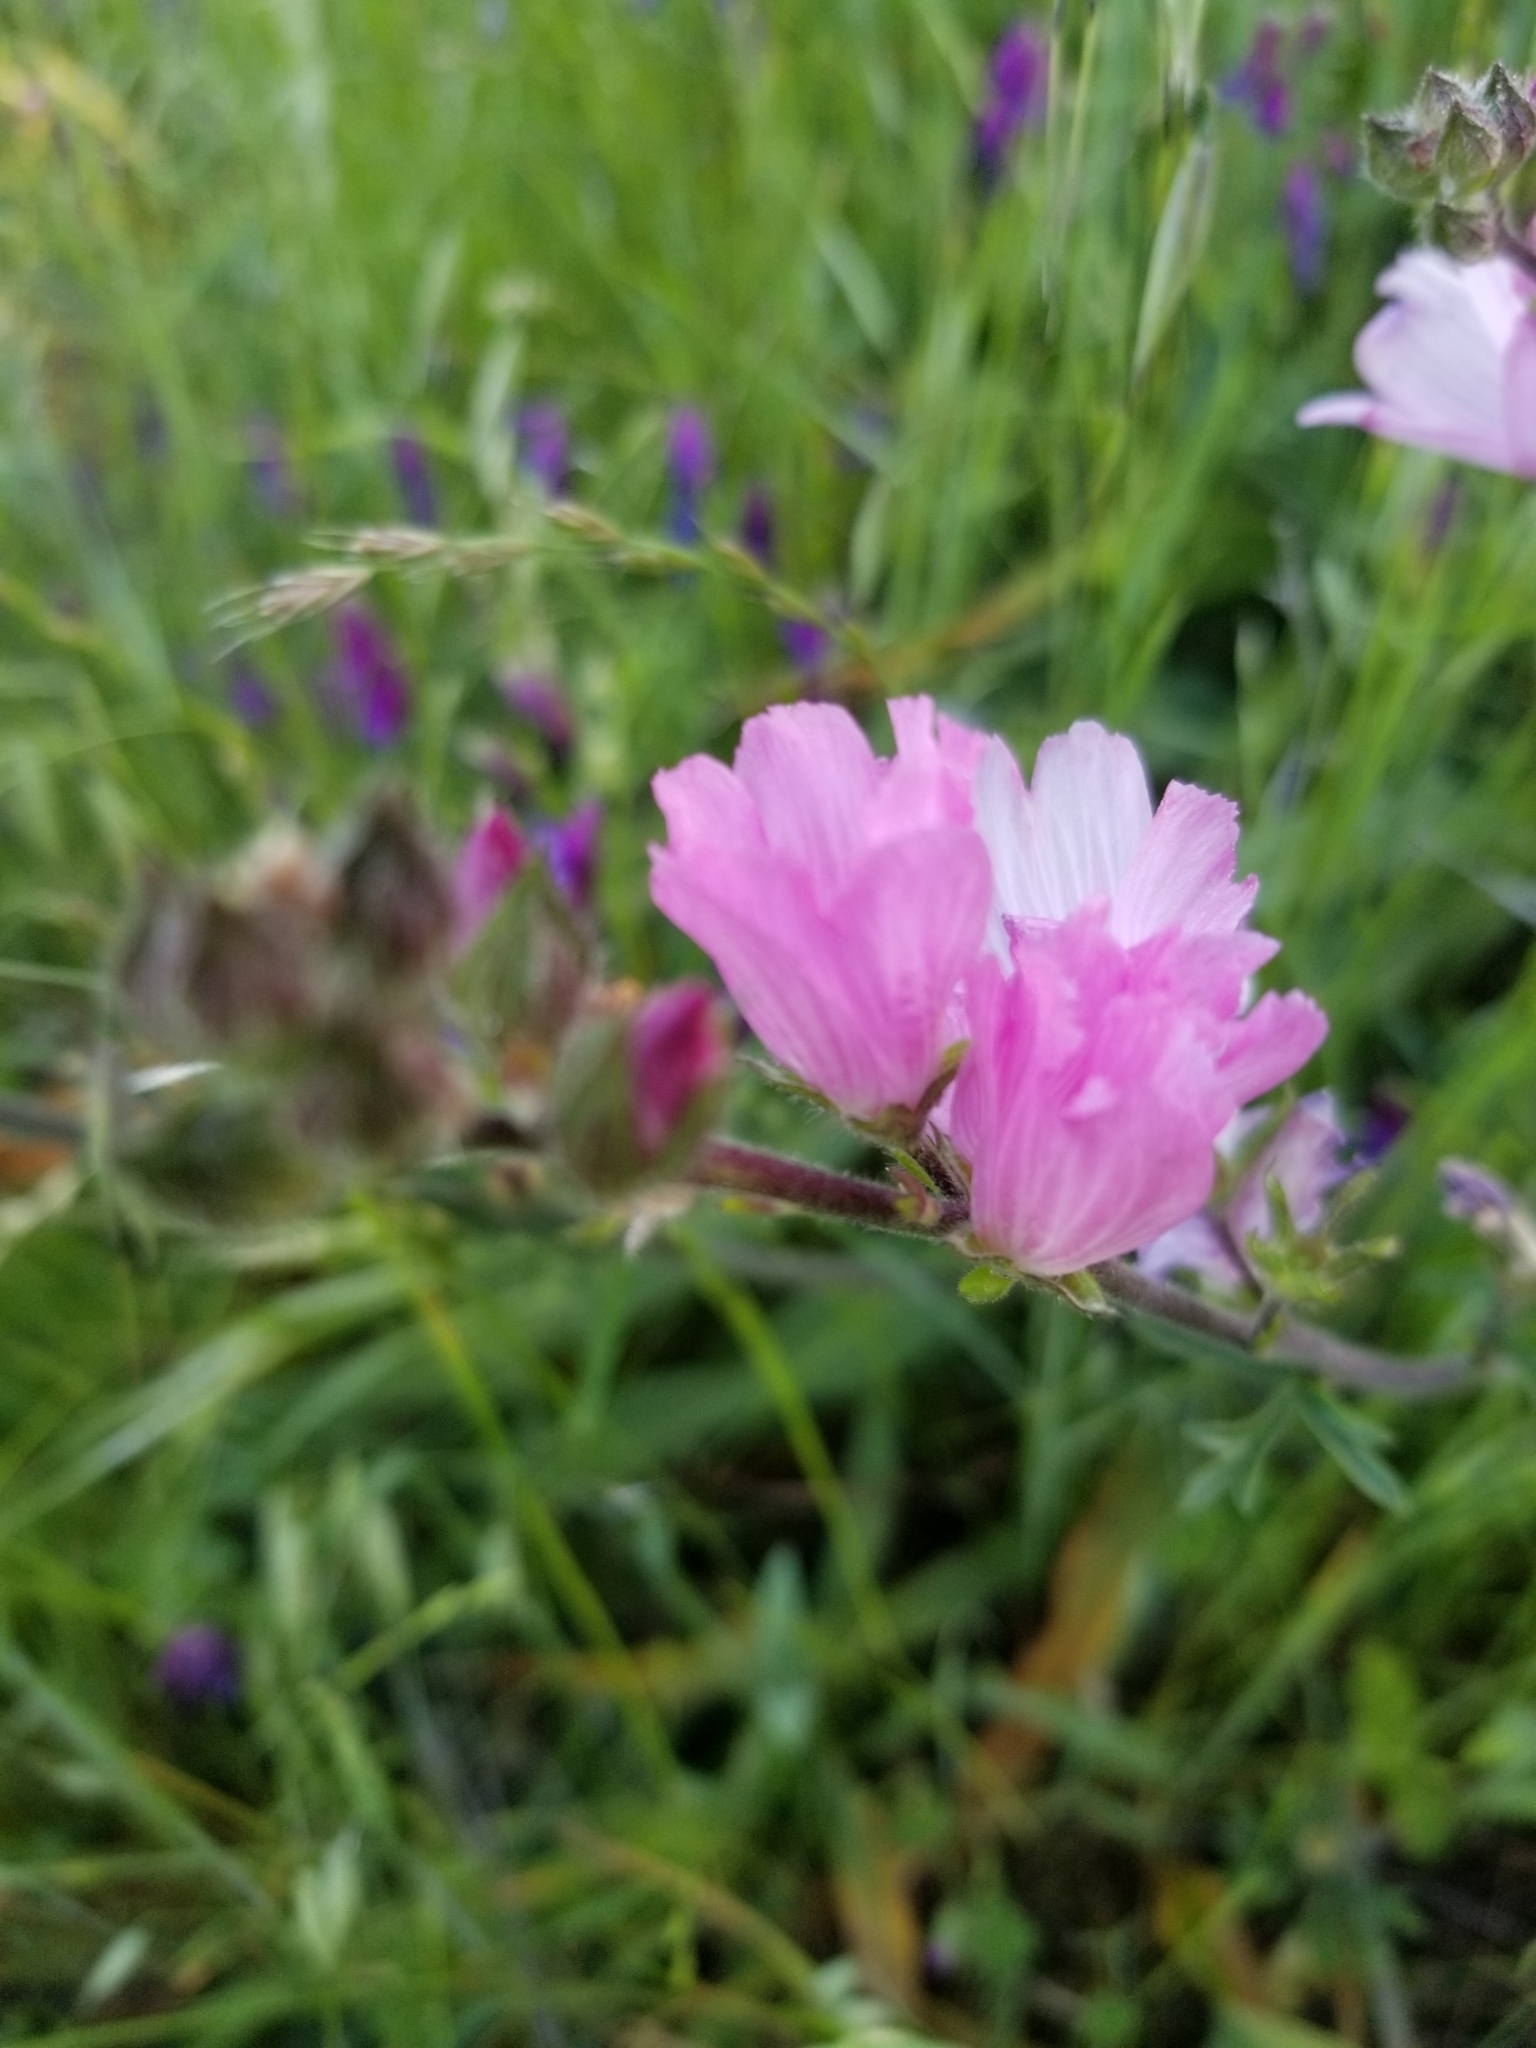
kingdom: Plantae
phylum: Tracheophyta
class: Magnoliopsida
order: Malvales
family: Malvaceae
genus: Sidalcea
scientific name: Sidalcea malviflora
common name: Greek mallow
